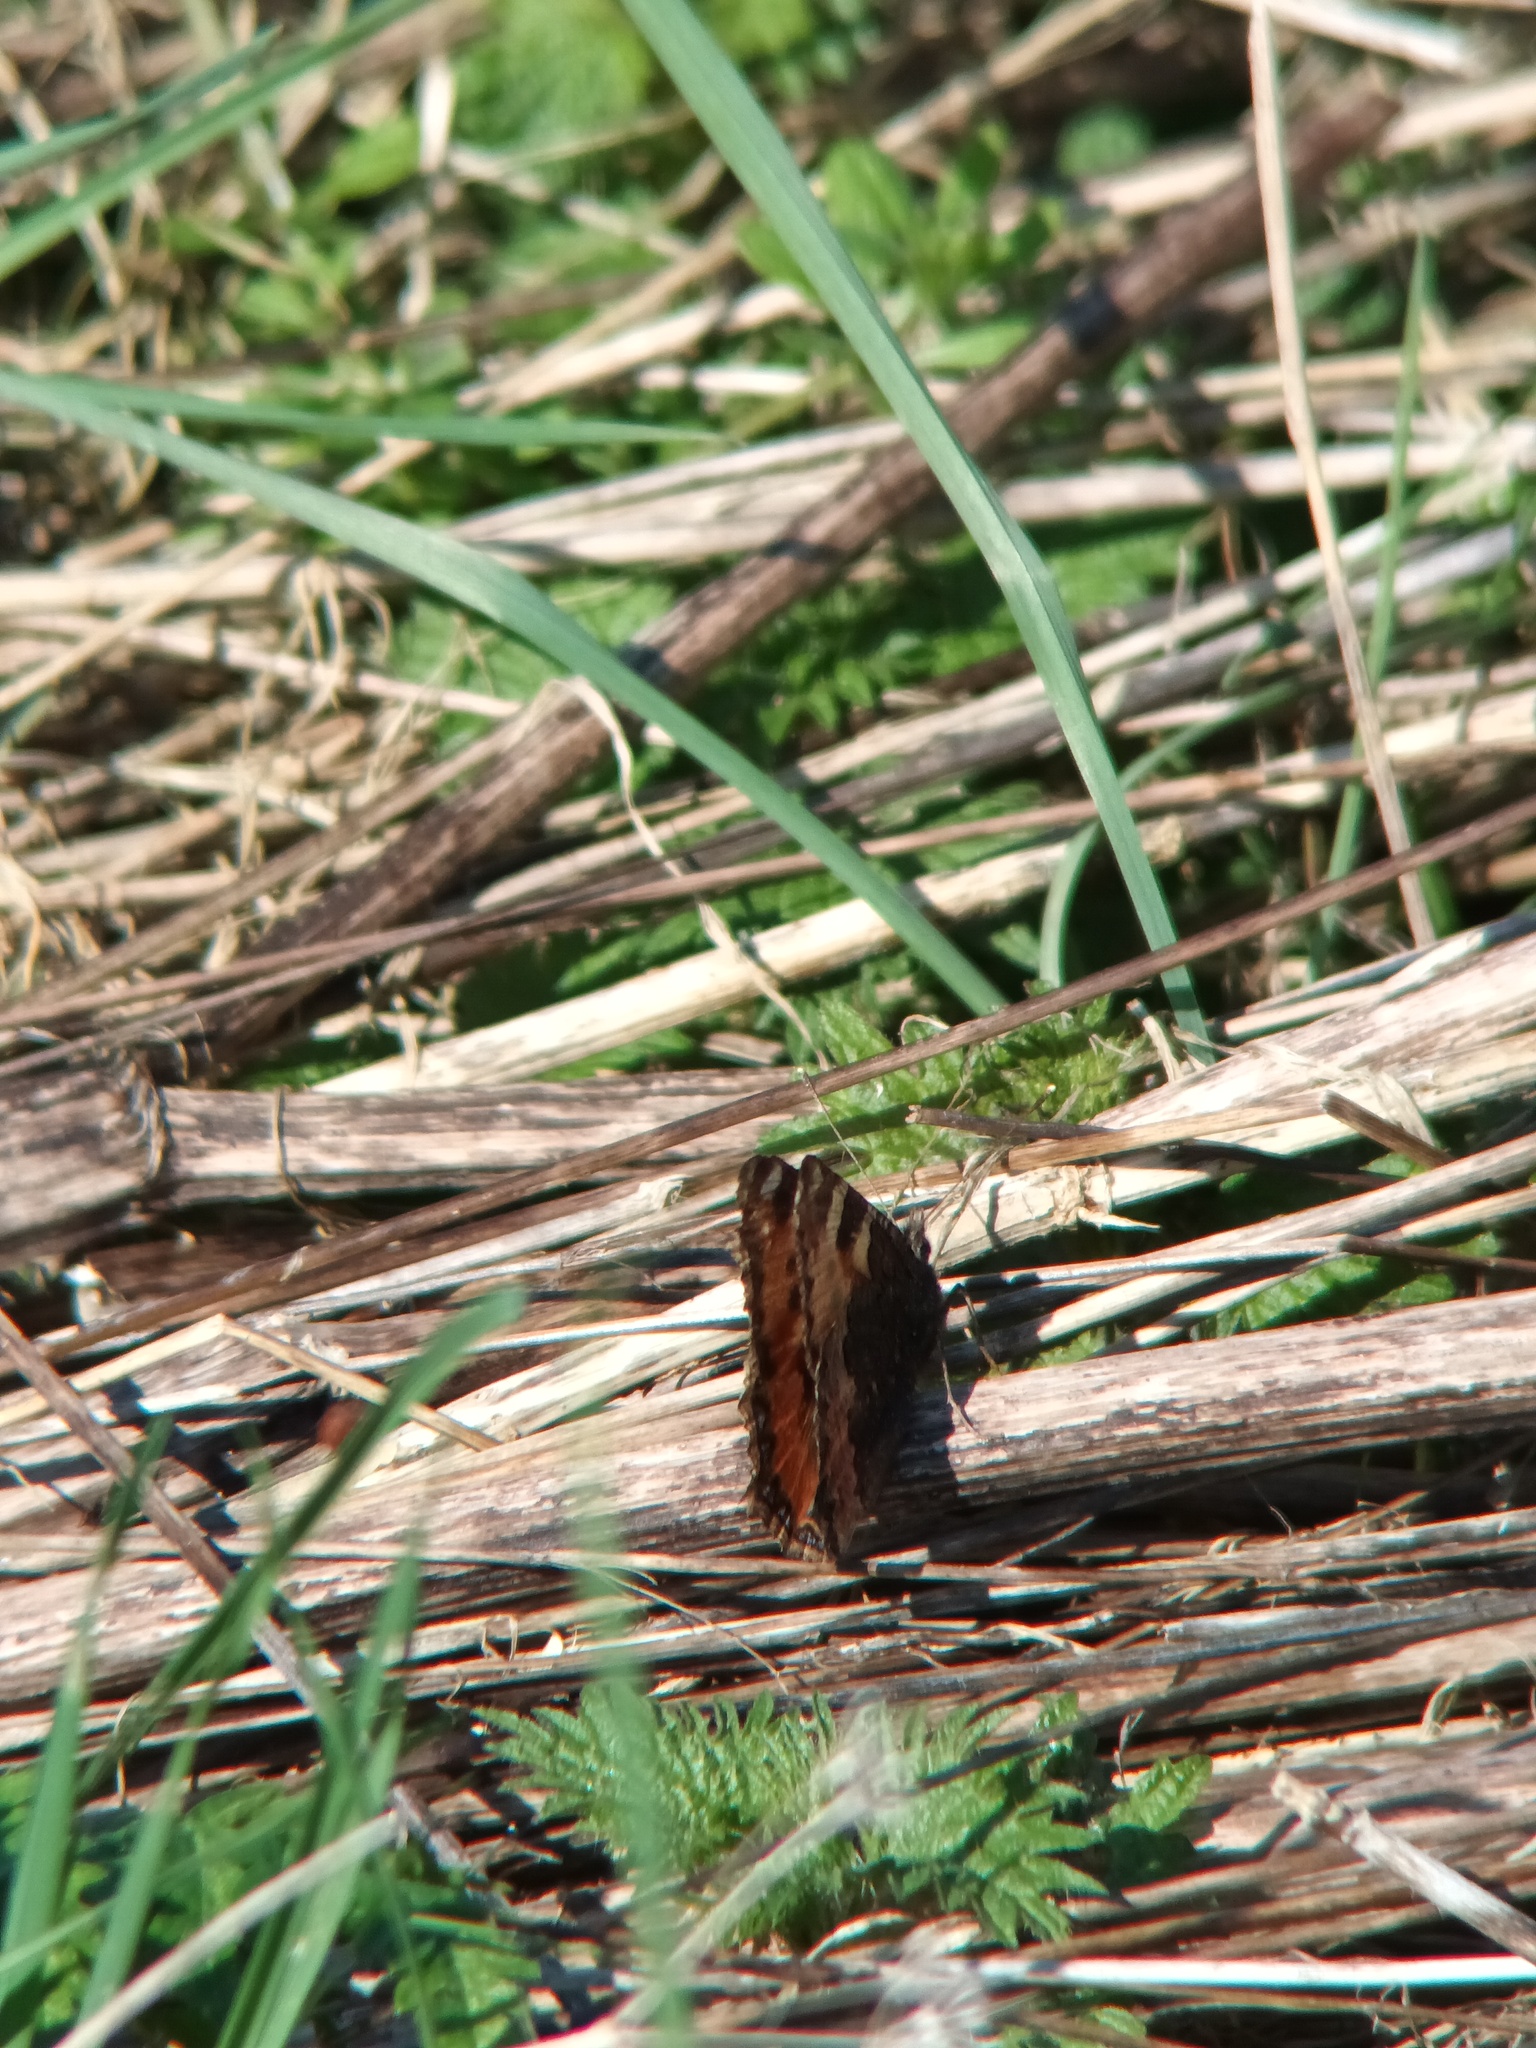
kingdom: Animalia
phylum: Arthropoda
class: Insecta
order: Lepidoptera
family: Nymphalidae
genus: Aglais
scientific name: Aglais urticae
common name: Small tortoiseshell
